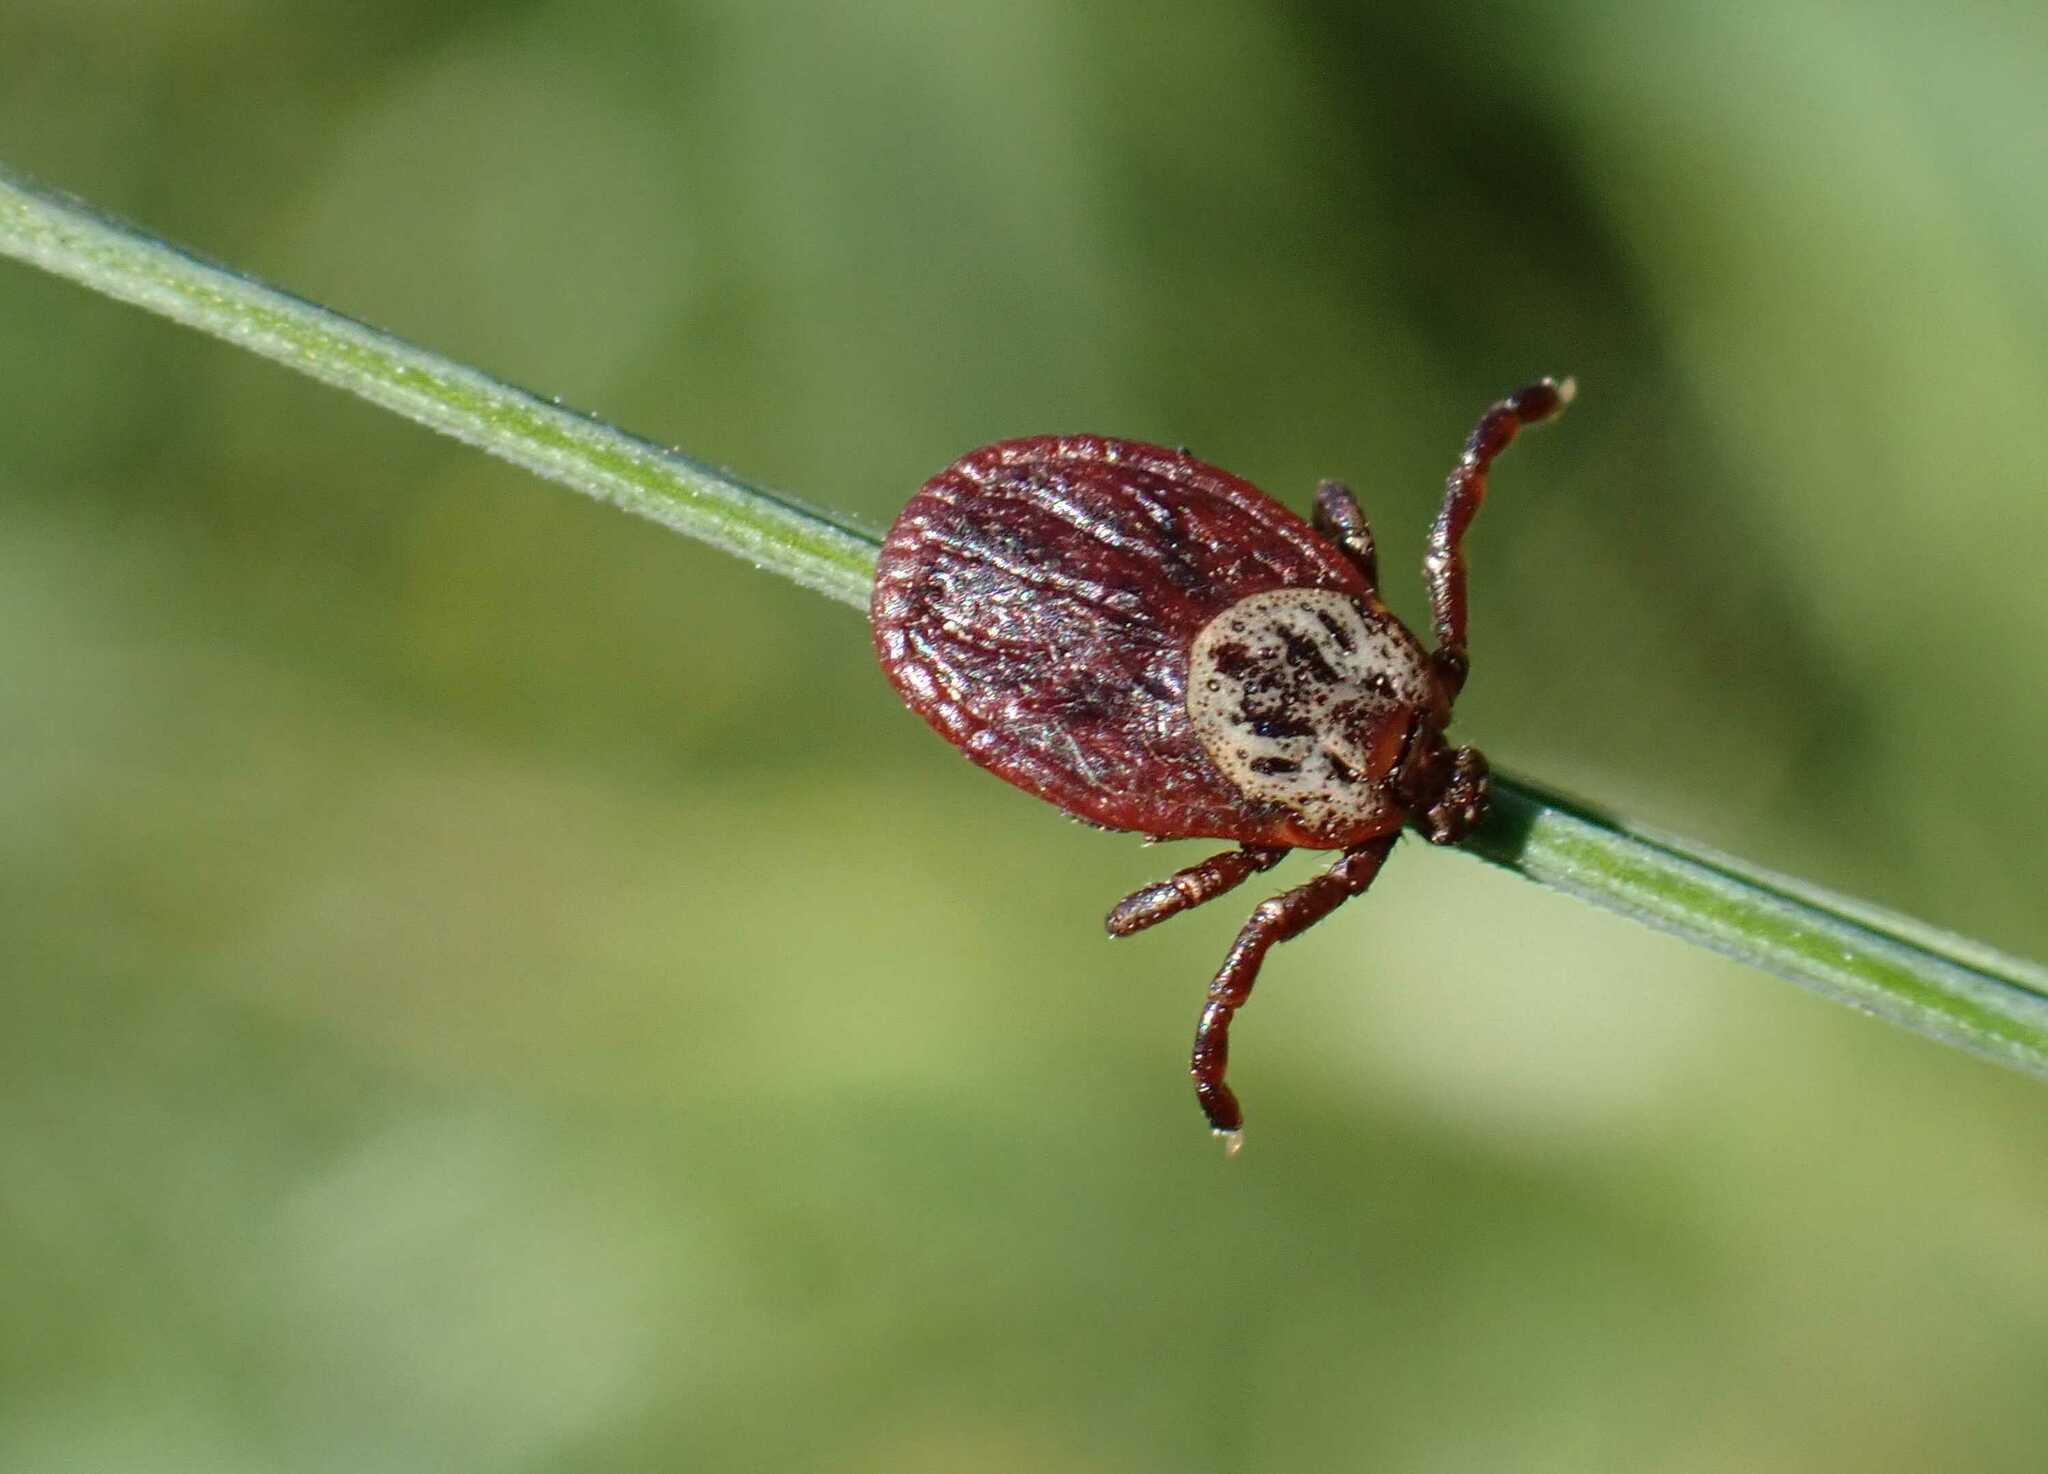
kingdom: Animalia
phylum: Arthropoda
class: Arachnida
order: Ixodida
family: Ixodidae
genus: Dermacentor
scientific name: Dermacentor reticulatus
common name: Ornate cow tick
